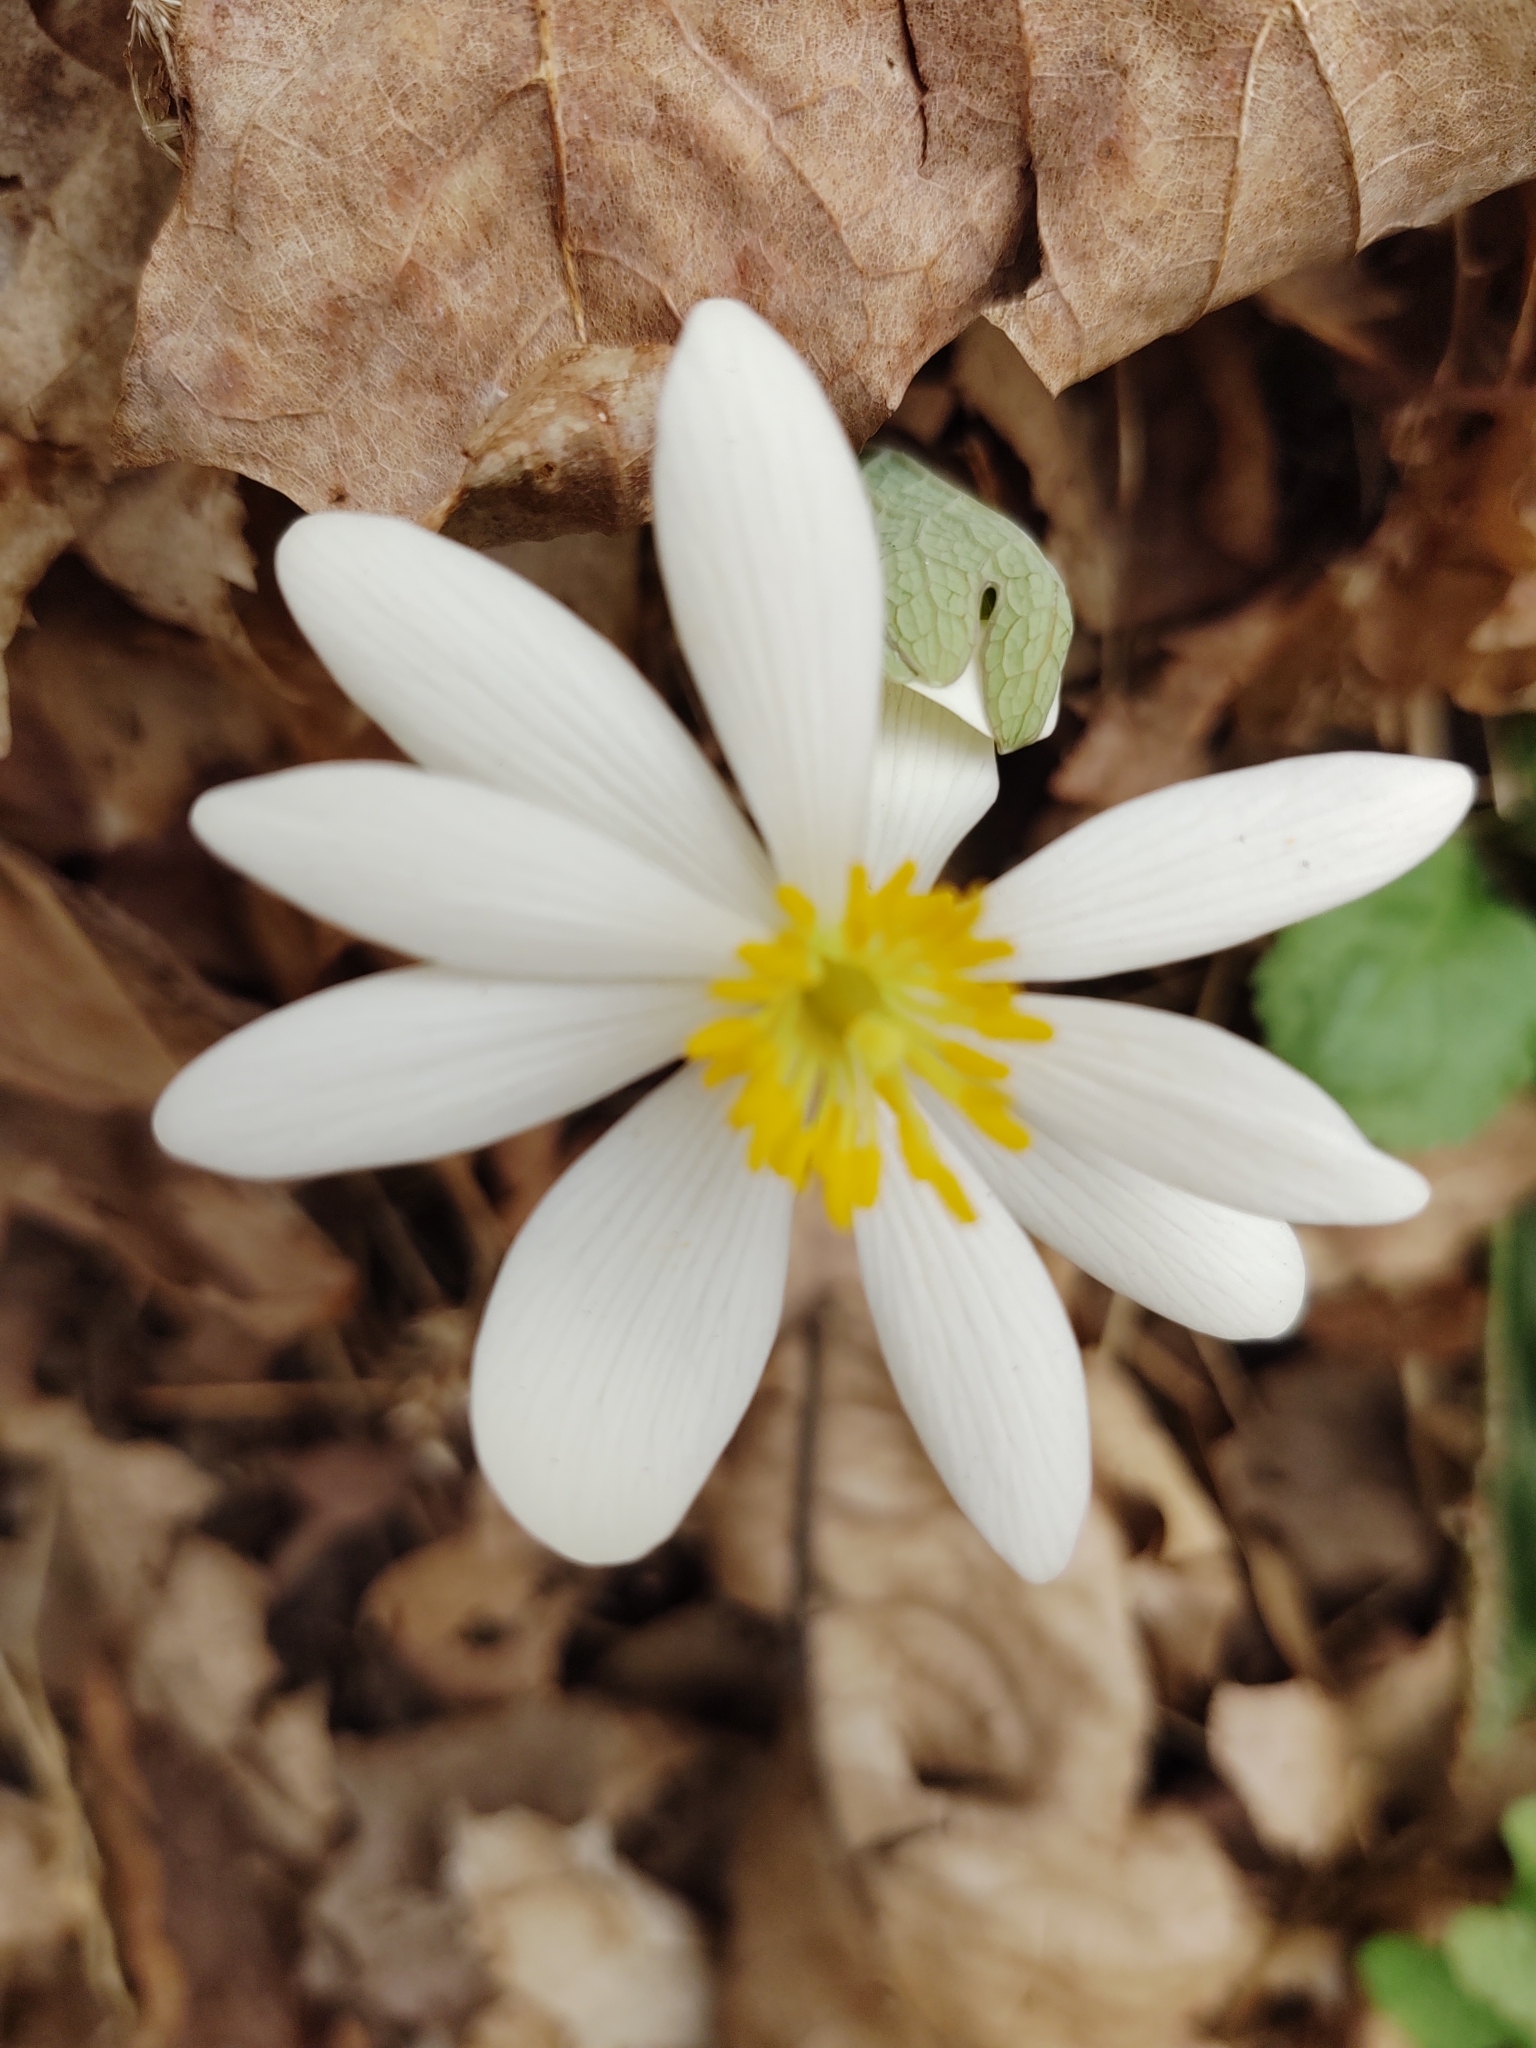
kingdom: Plantae
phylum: Tracheophyta
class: Magnoliopsida
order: Ranunculales
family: Papaveraceae
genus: Sanguinaria
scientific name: Sanguinaria canadensis
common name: Bloodroot
